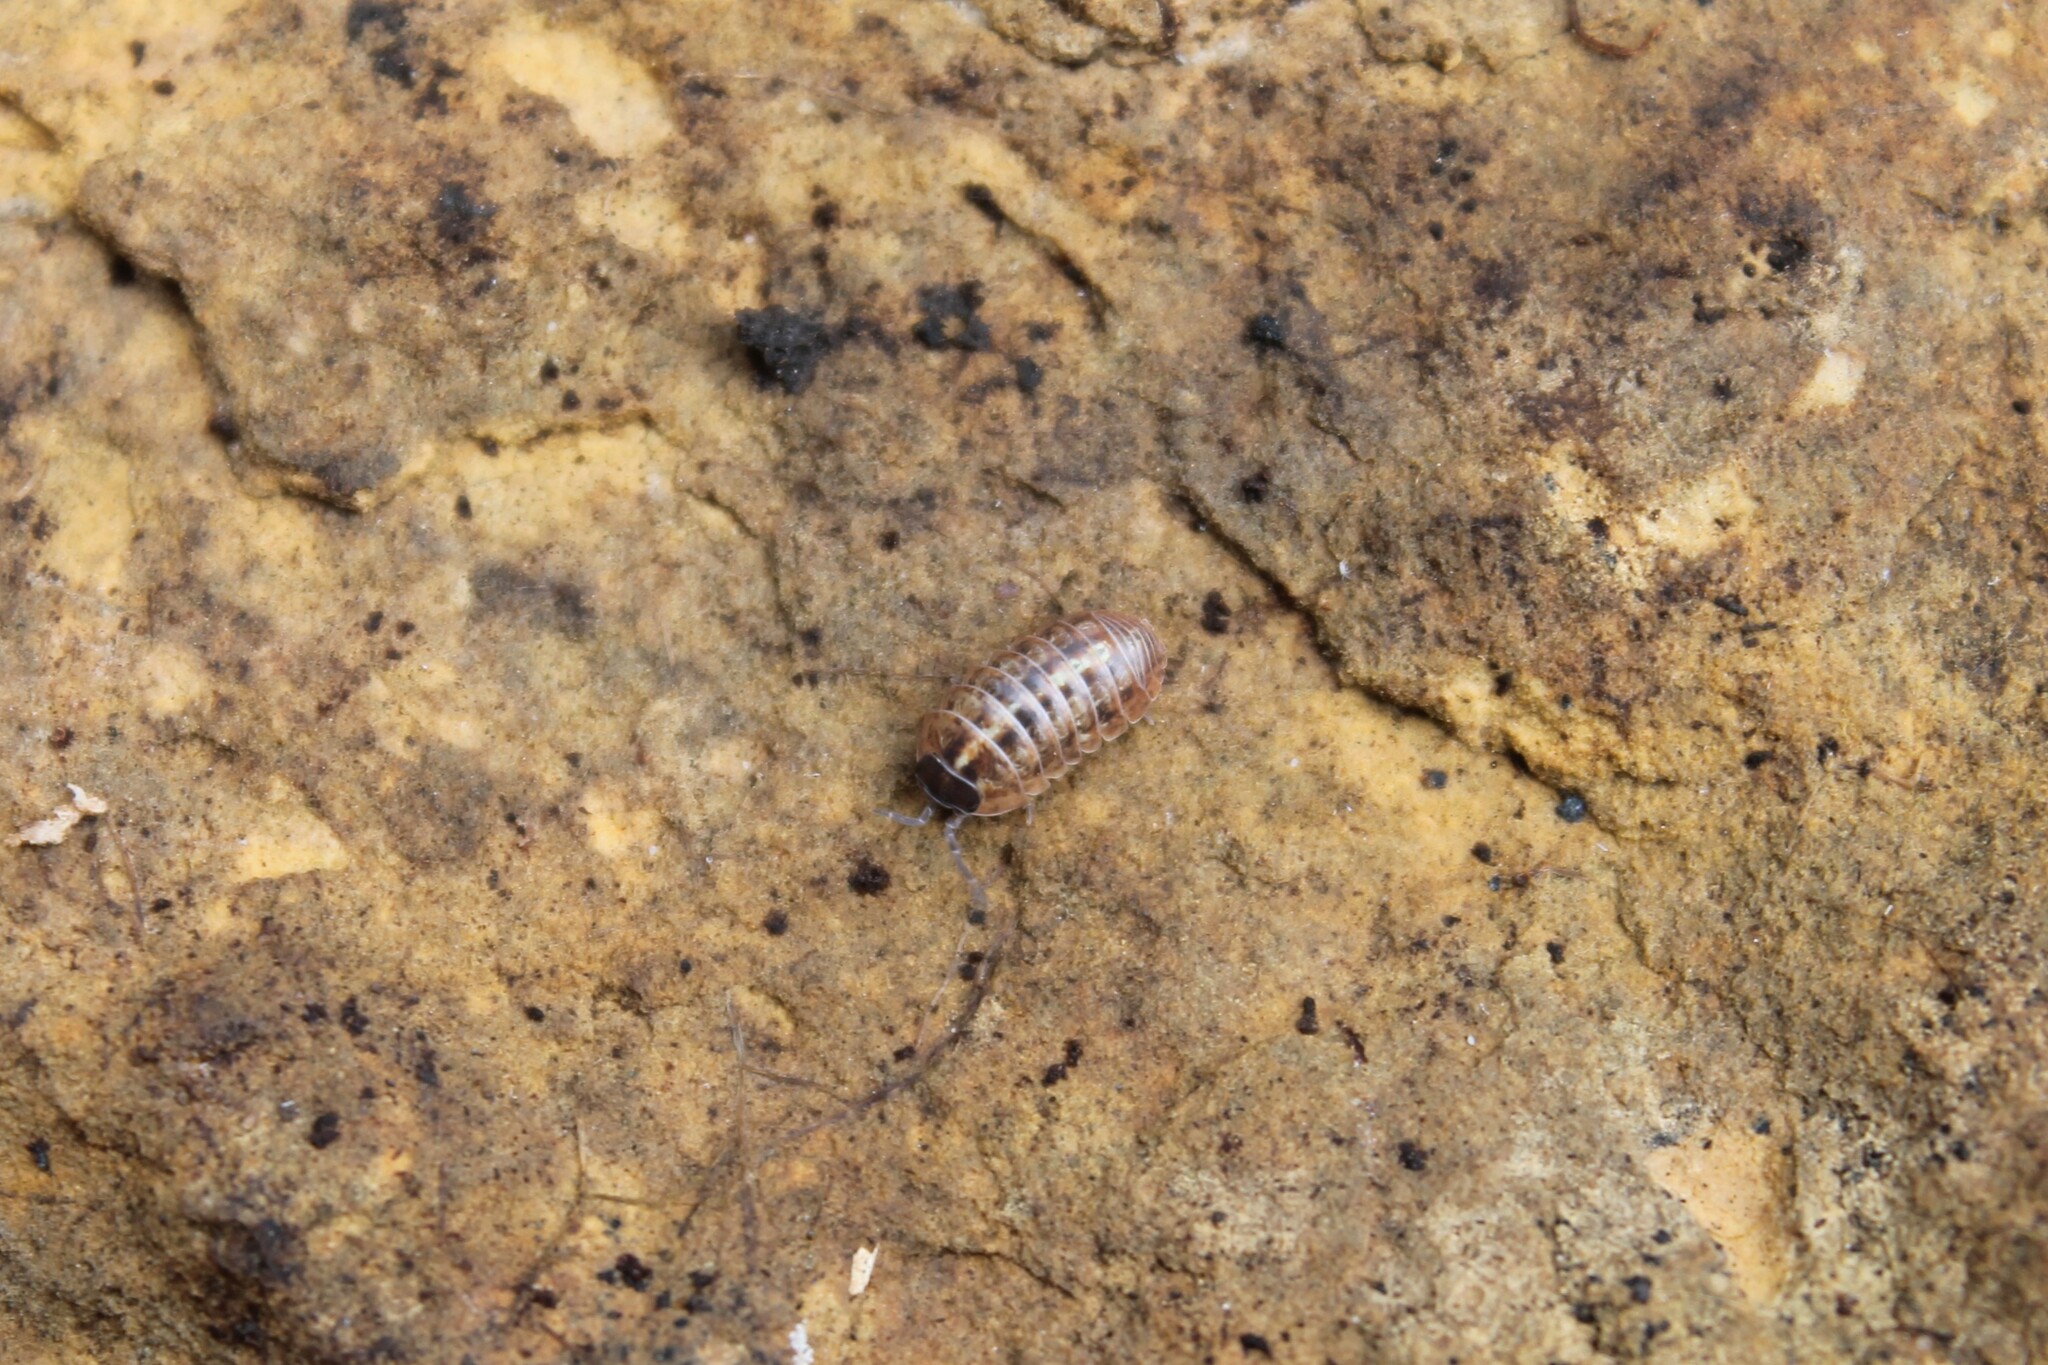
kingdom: Animalia
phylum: Arthropoda
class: Malacostraca
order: Isopoda
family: Armadillidiidae
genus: Armadillidium
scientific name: Armadillidium vulgare
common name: Common pill woodlouse
